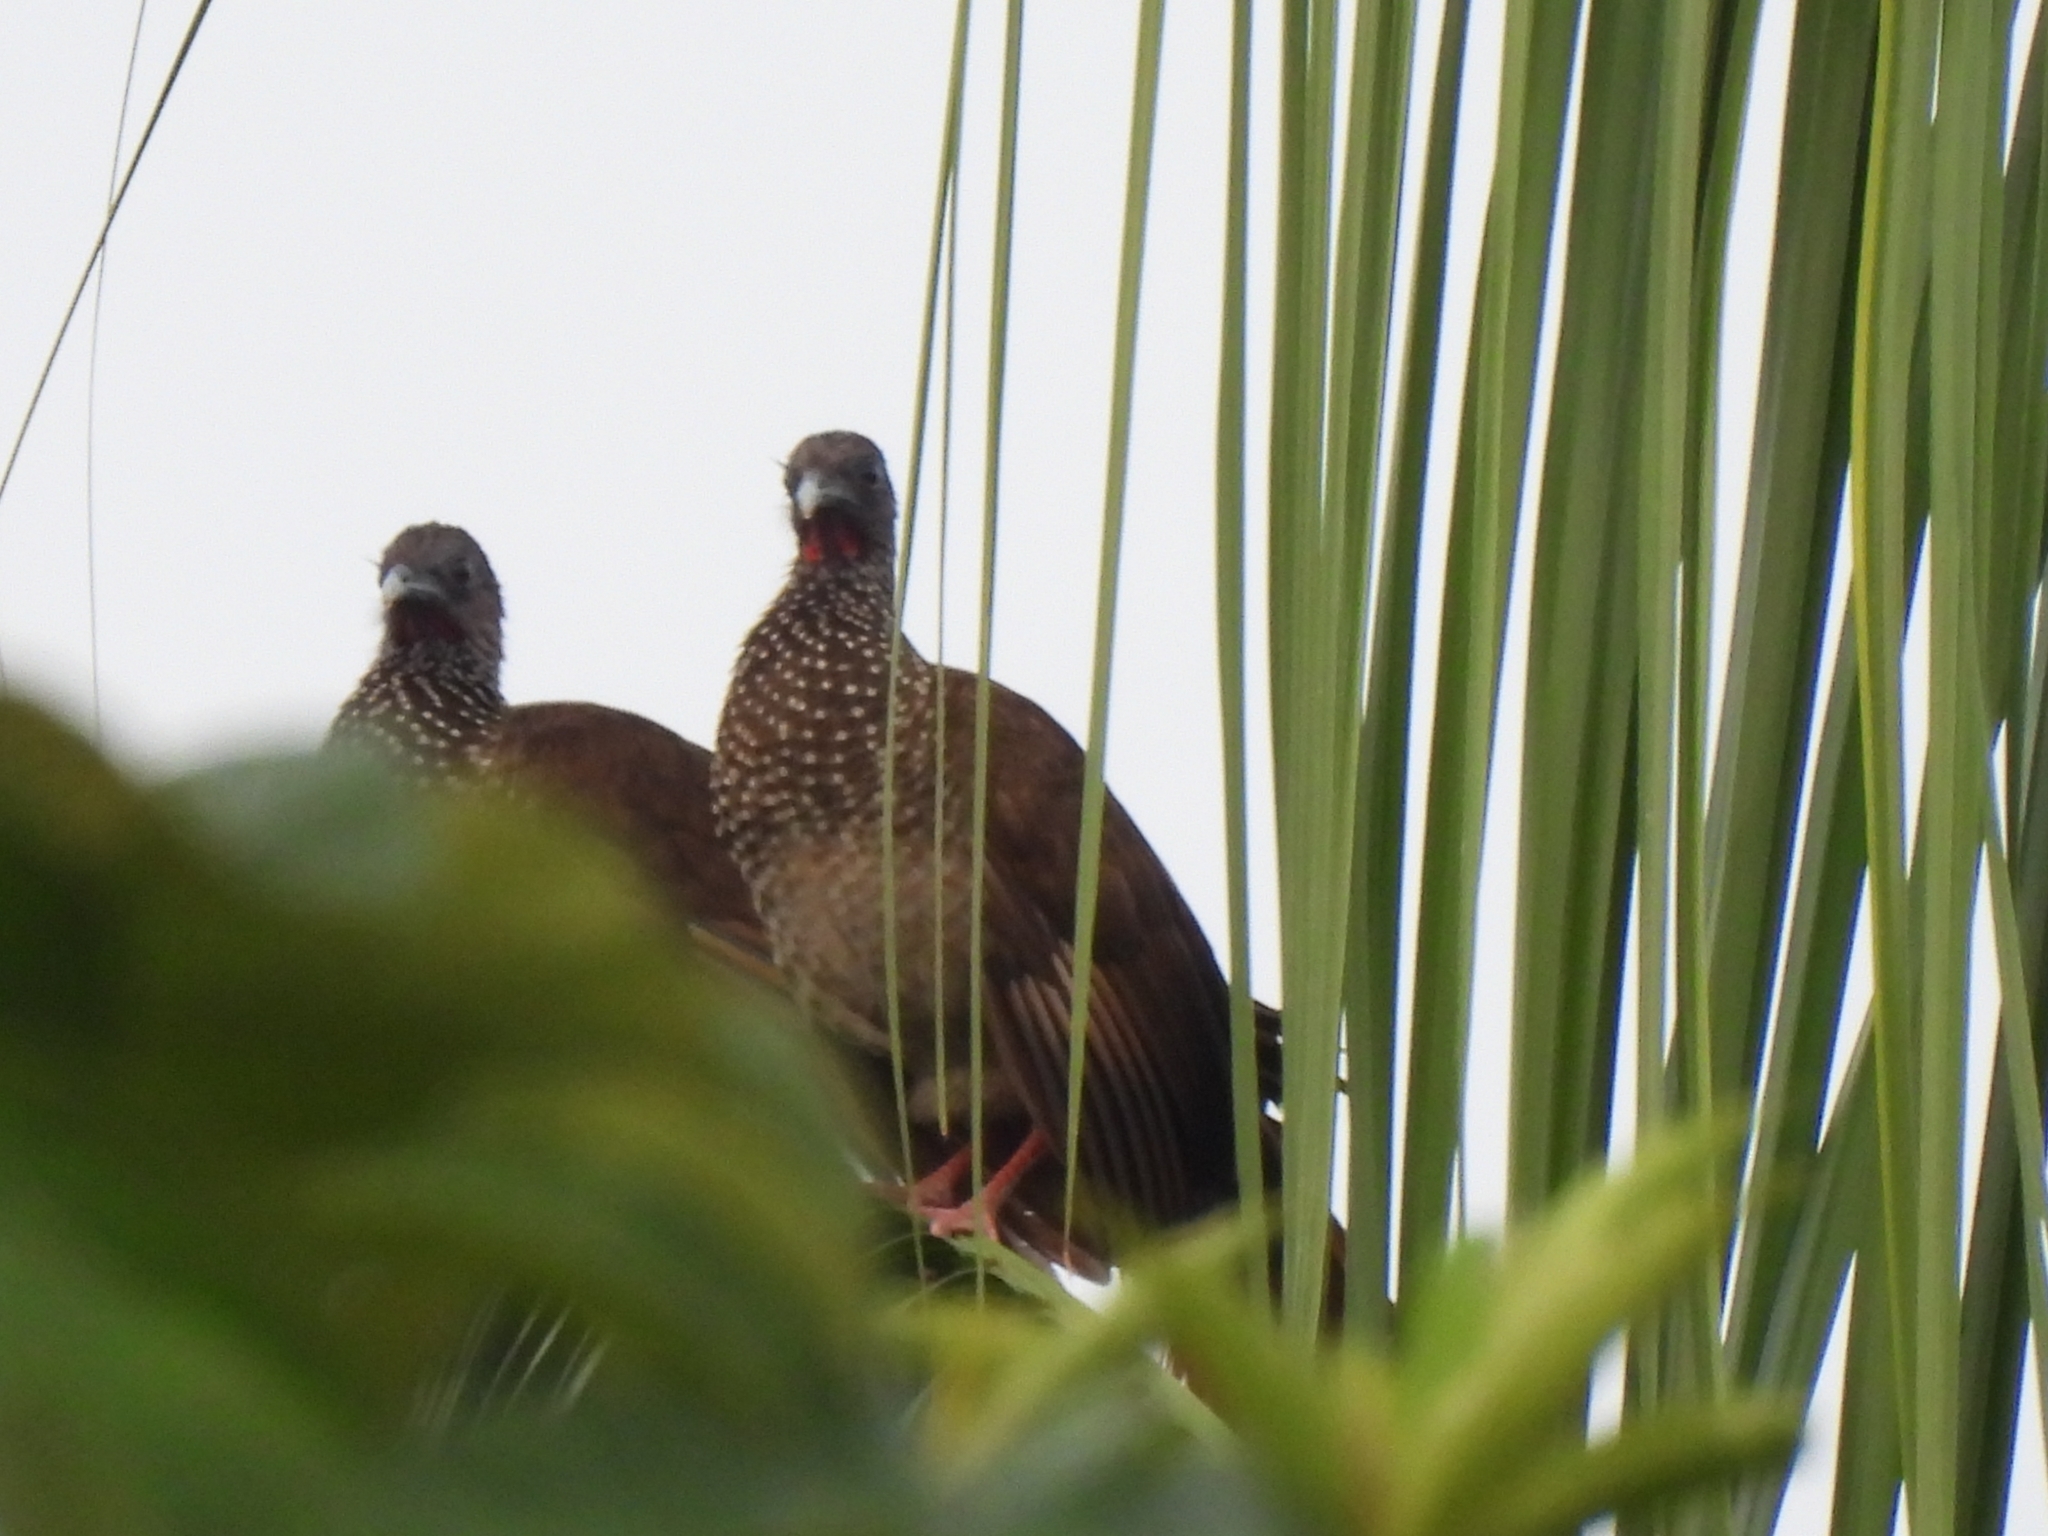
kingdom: Animalia
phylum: Chordata
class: Aves
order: Galliformes
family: Cracidae
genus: Ortalis
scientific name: Ortalis guttata
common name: Speckled chachalaca
